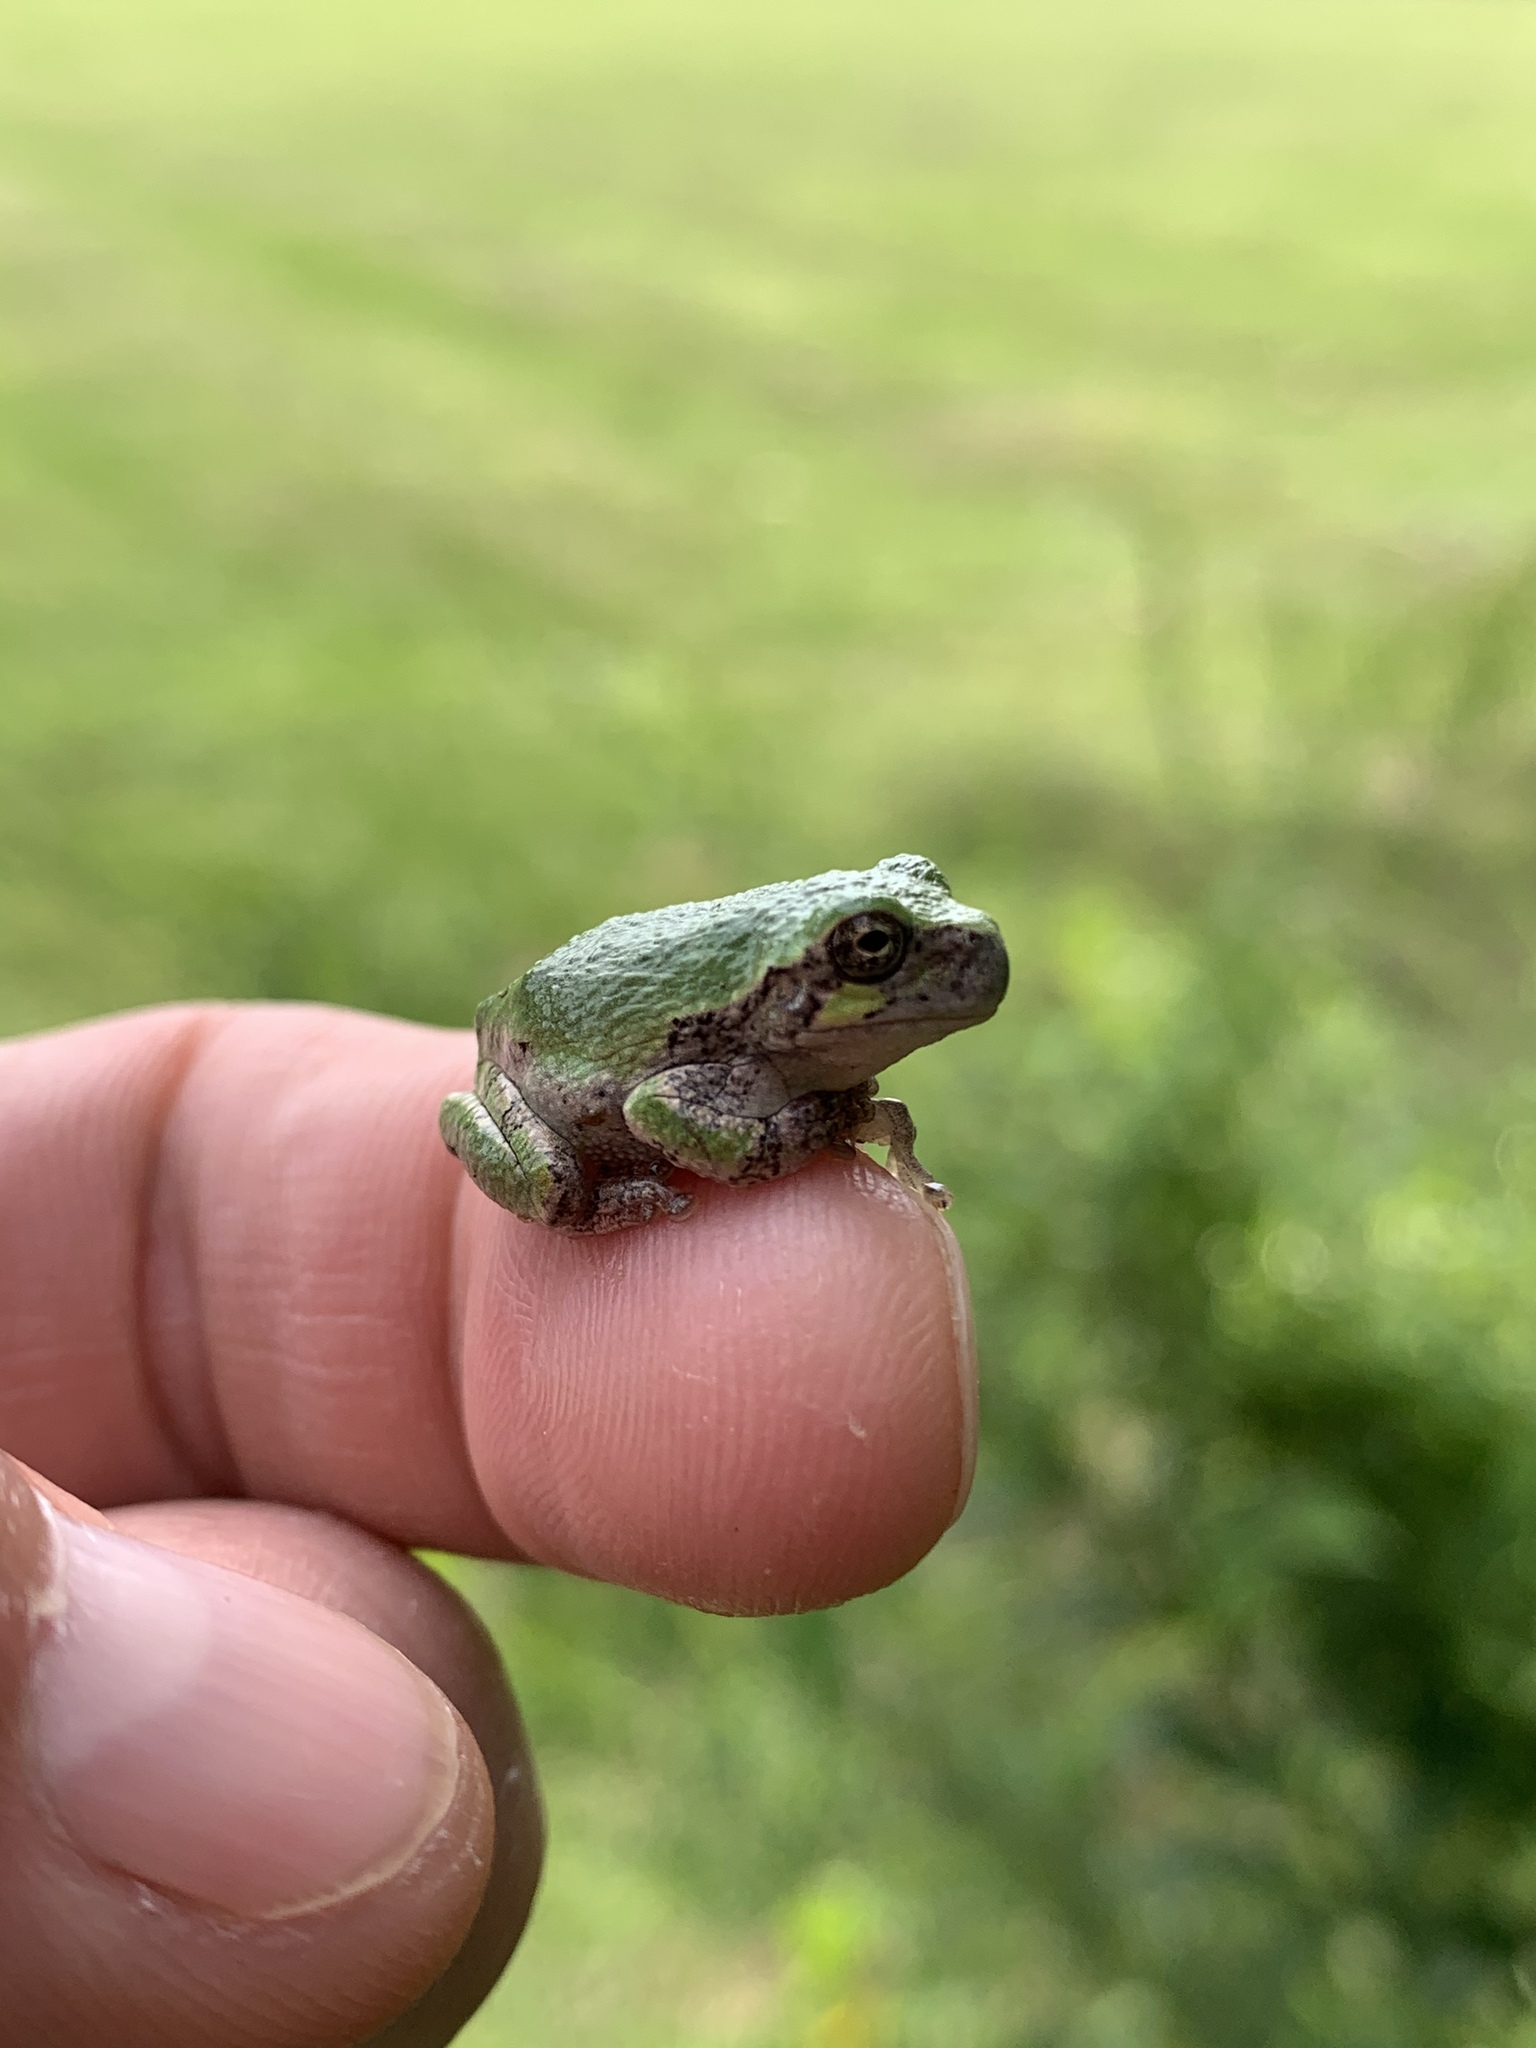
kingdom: Animalia
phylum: Chordata
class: Amphibia
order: Anura
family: Hylidae
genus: Dryophytes
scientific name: Dryophytes versicolor
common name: Gray treefrog
